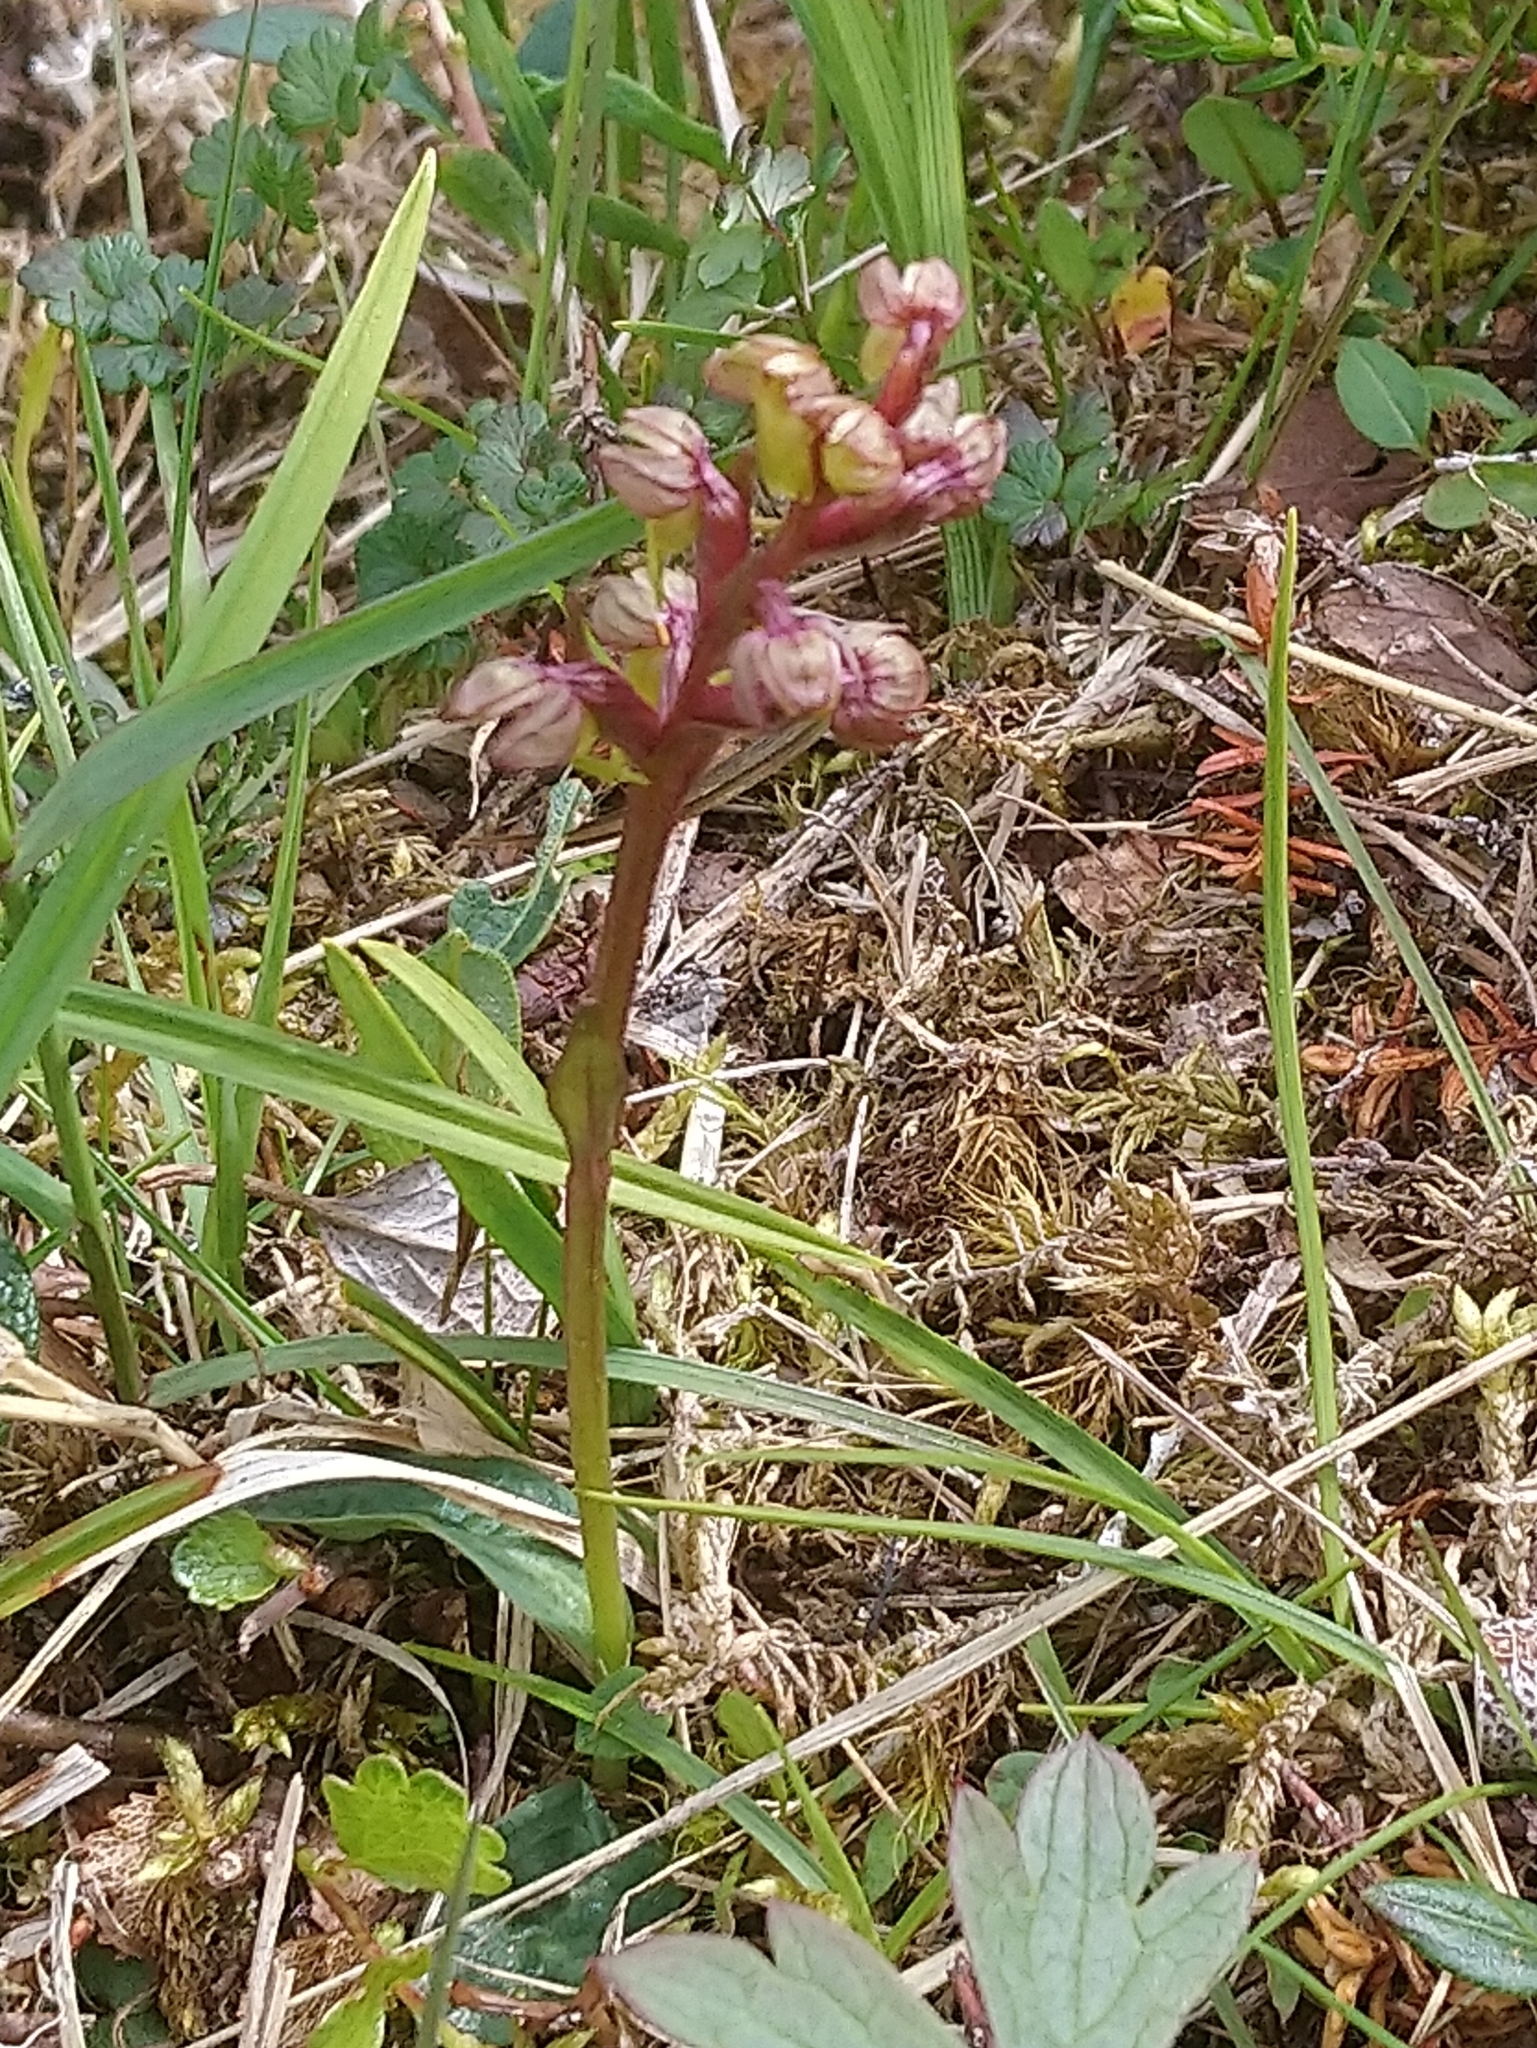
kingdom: Plantae
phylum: Tracheophyta
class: Liliopsida
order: Asparagales
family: Orchidaceae
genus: Dactylorhiza
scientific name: Dactylorhiza viridis
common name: Longbract frog orchid
